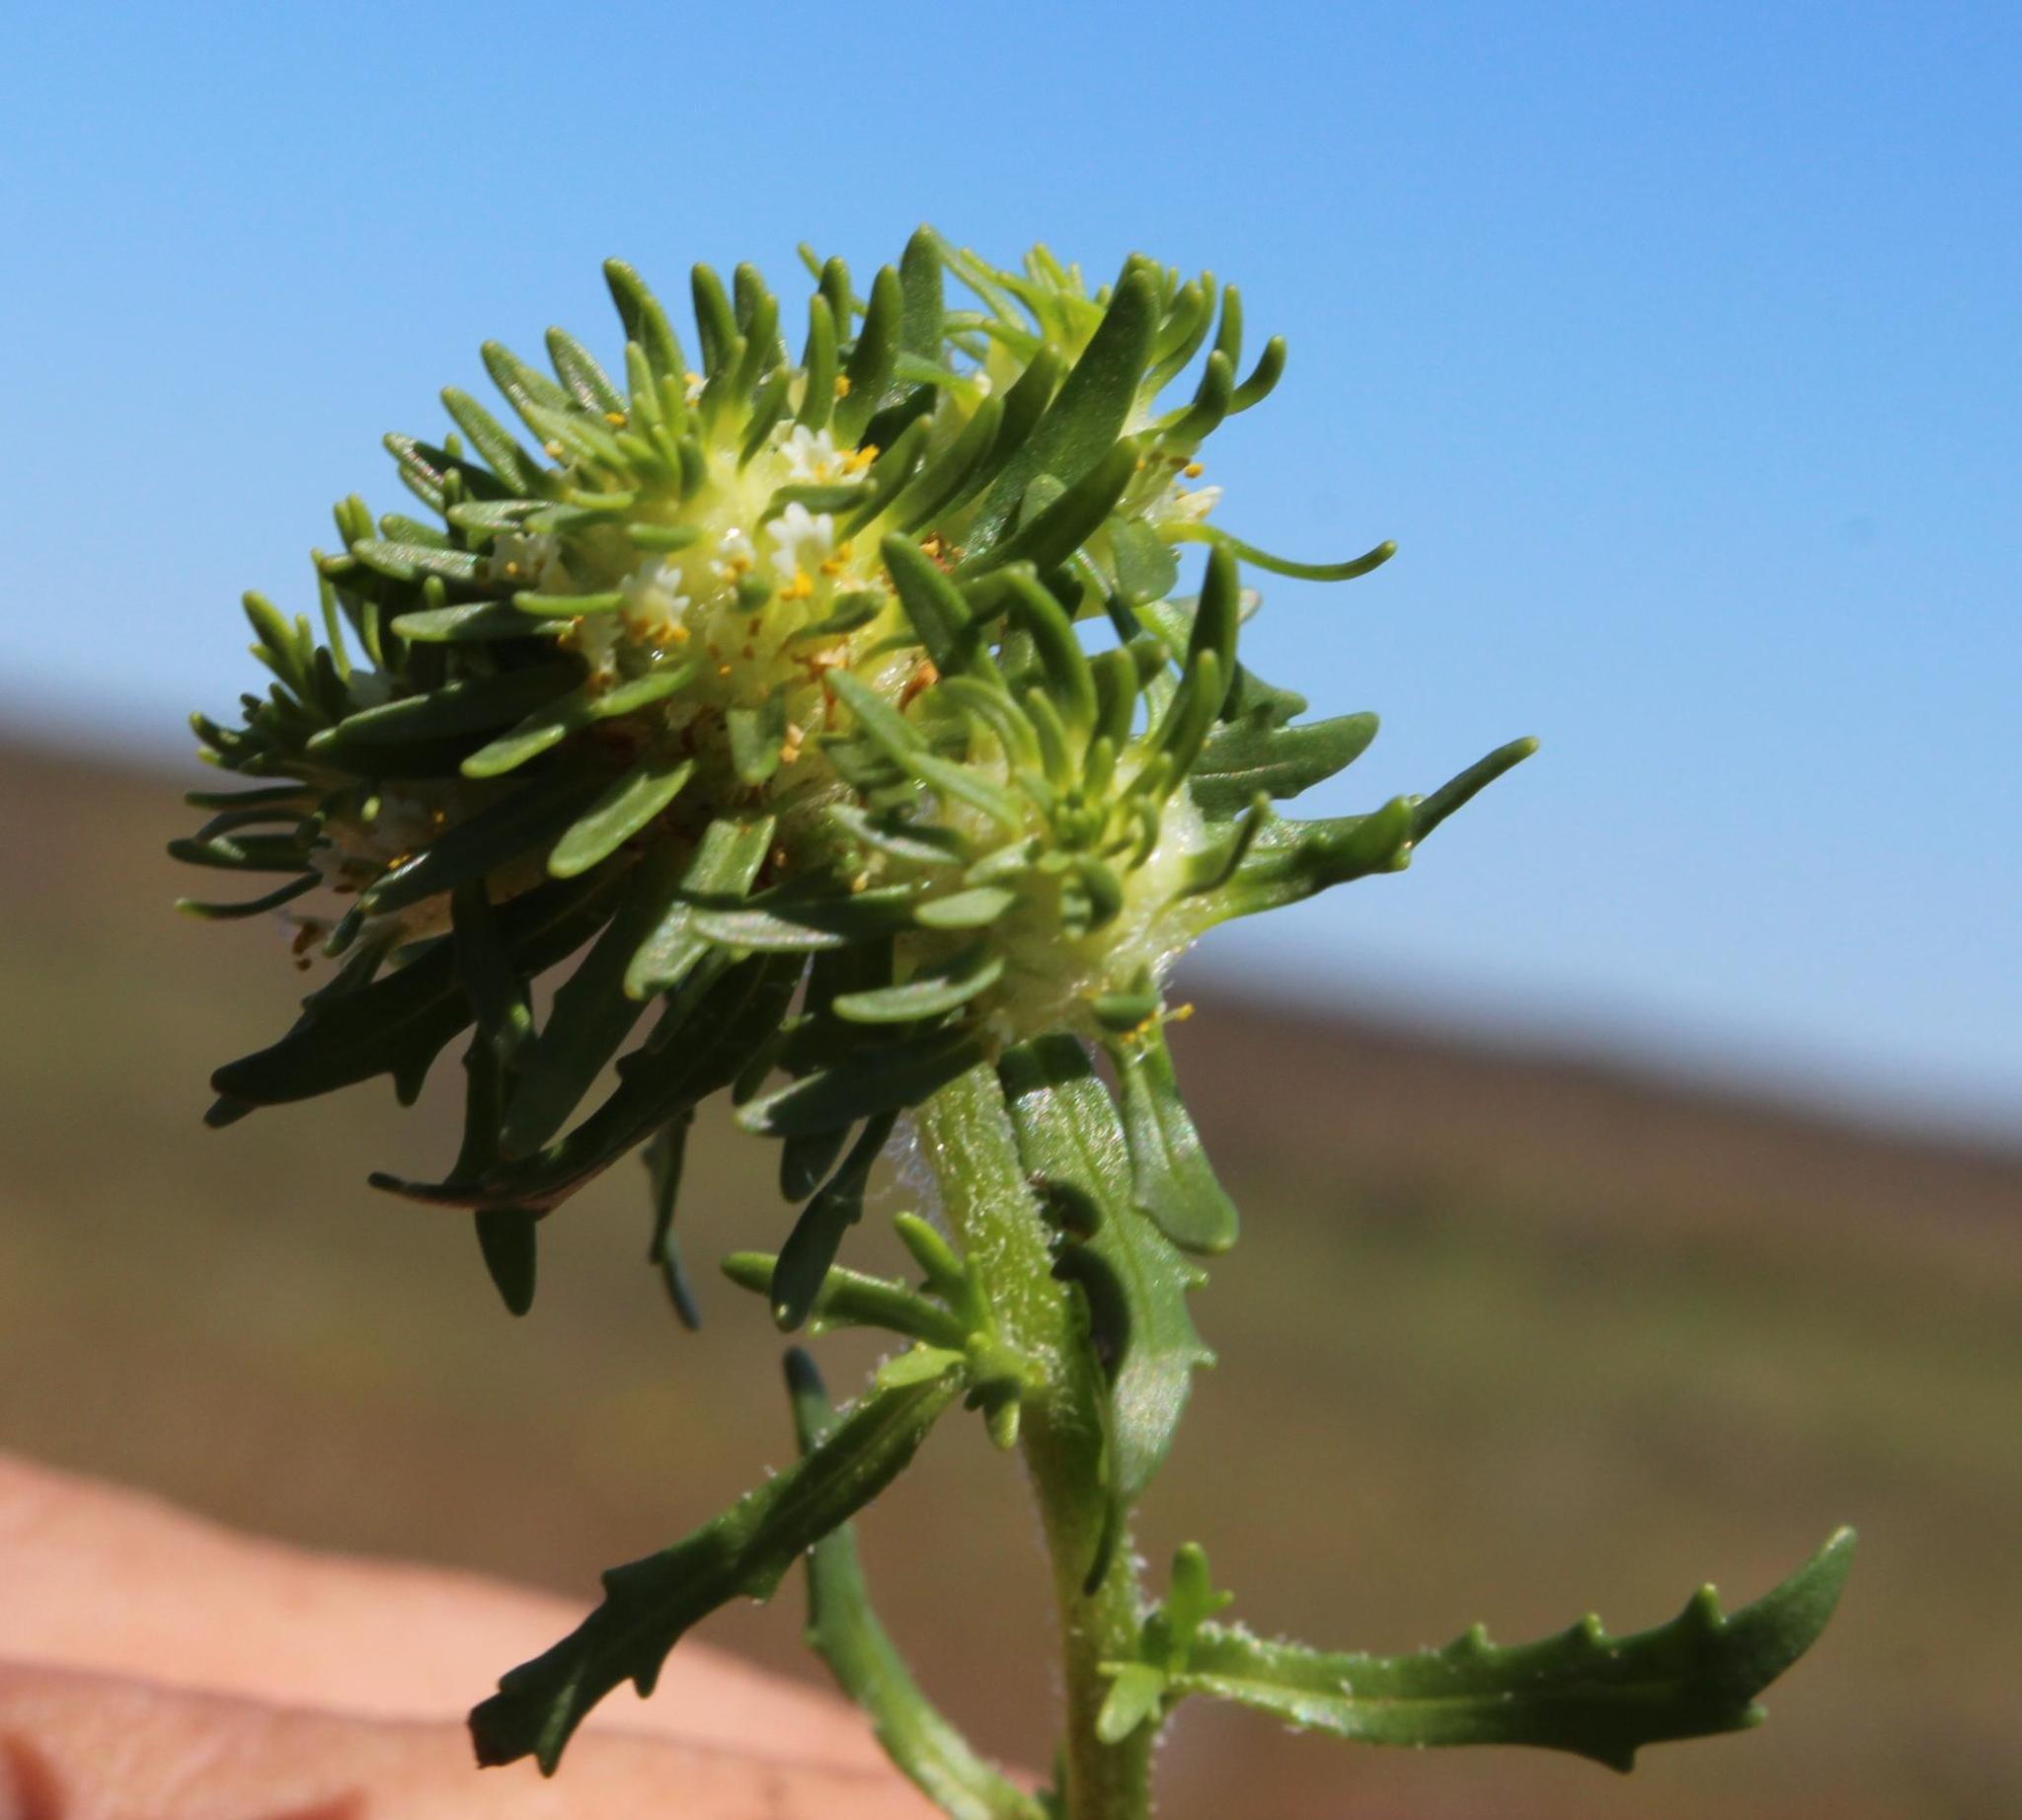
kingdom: Plantae
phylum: Tracheophyta
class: Magnoliopsida
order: Lamiales
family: Scrophulariaceae
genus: Dischisma
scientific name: Dischisma capitatum
